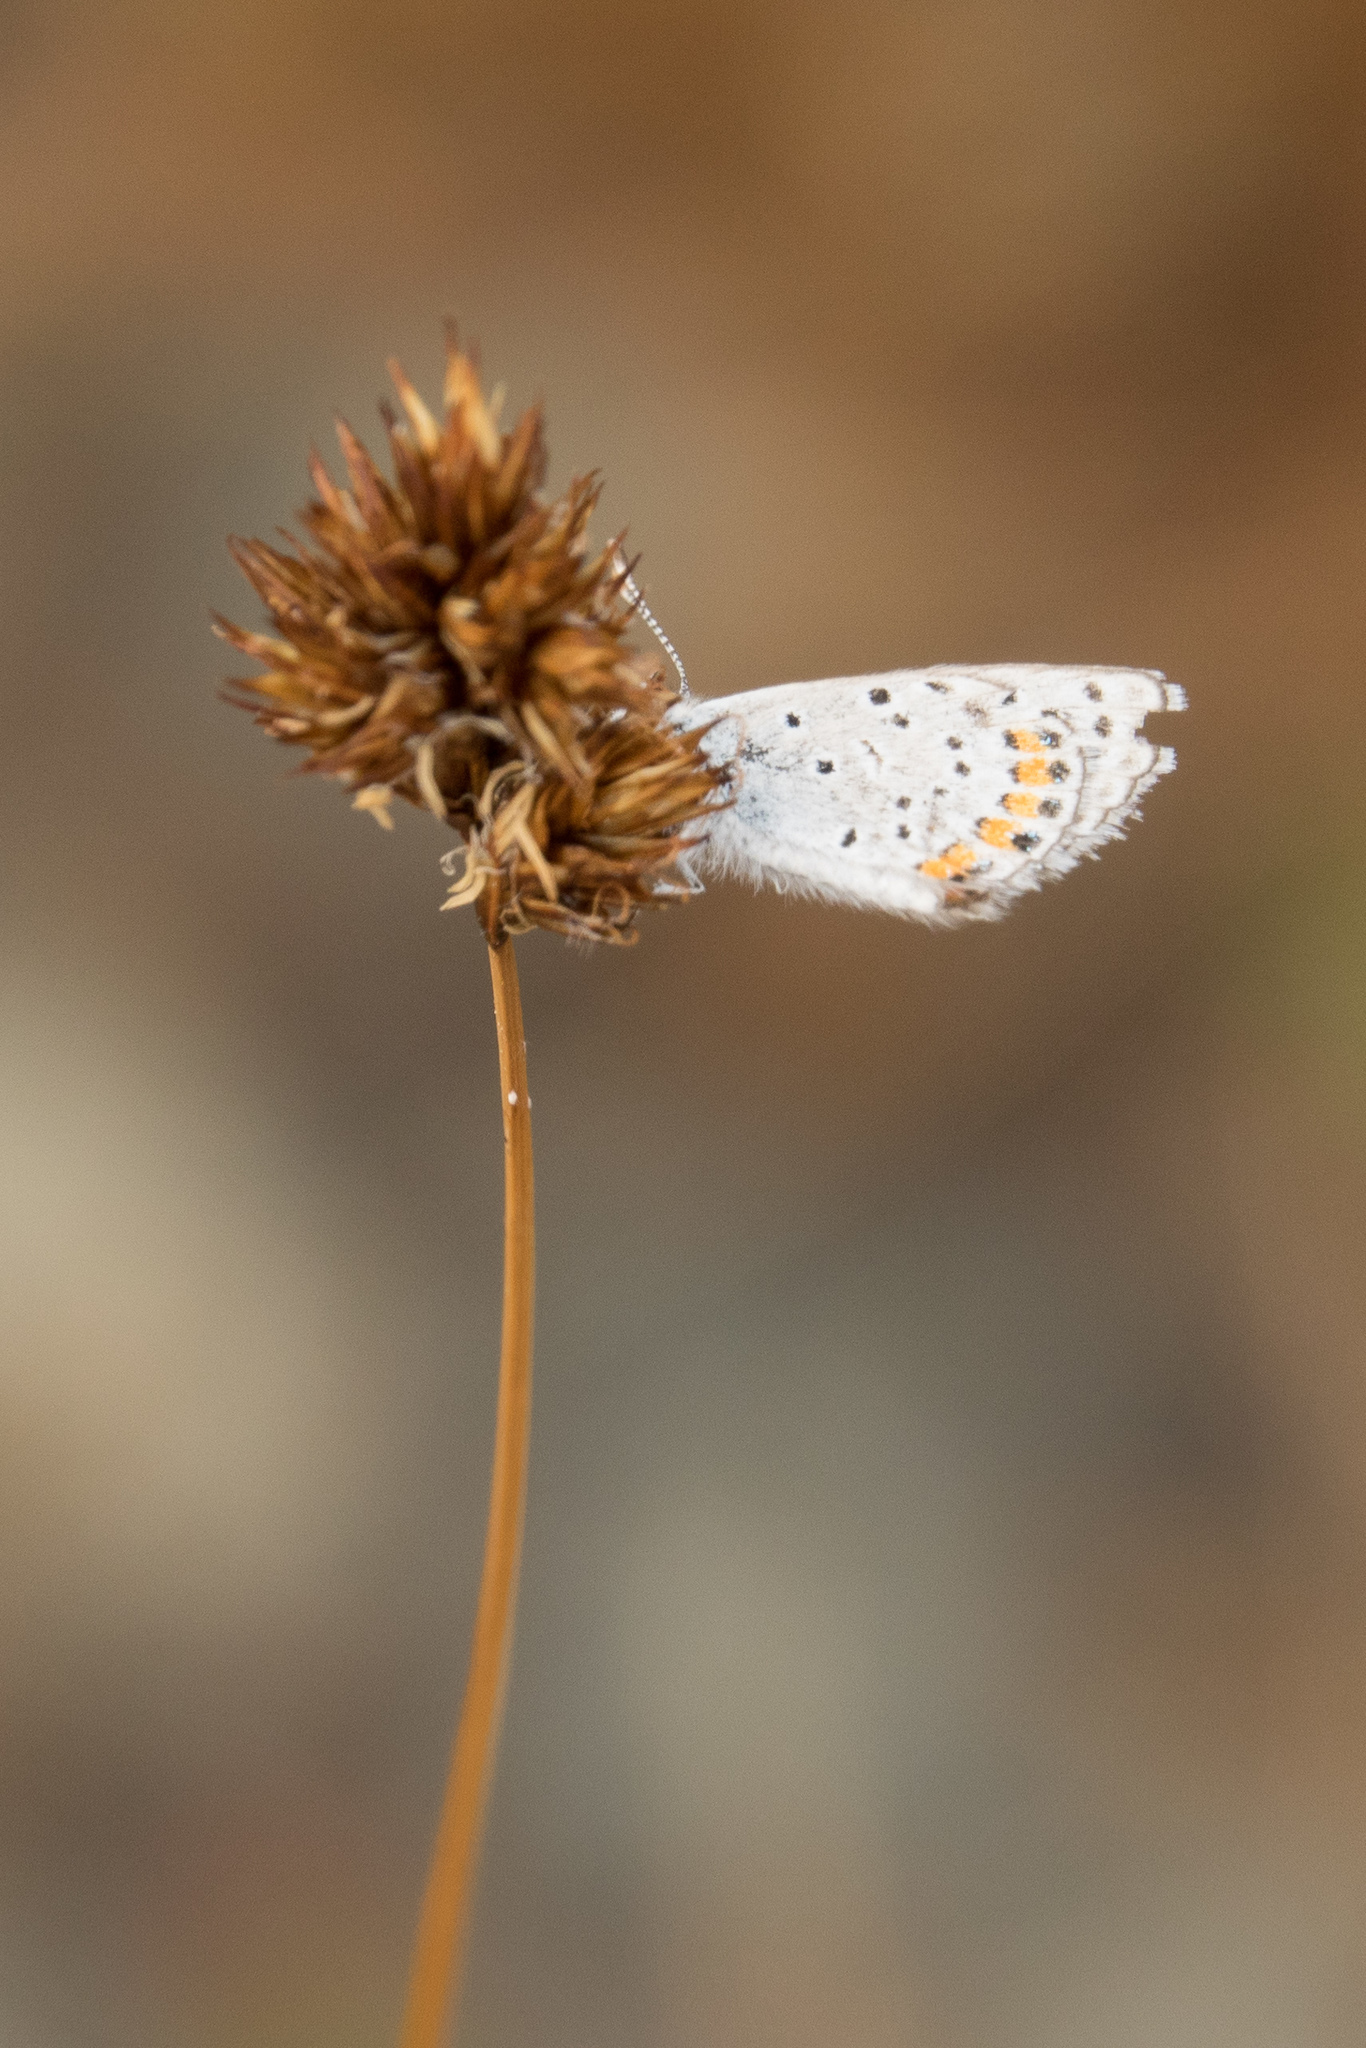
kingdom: Animalia
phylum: Arthropoda
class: Insecta
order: Lepidoptera
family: Lycaenidae
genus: Icaricia
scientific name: Icaricia acmon
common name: Acmon blue
